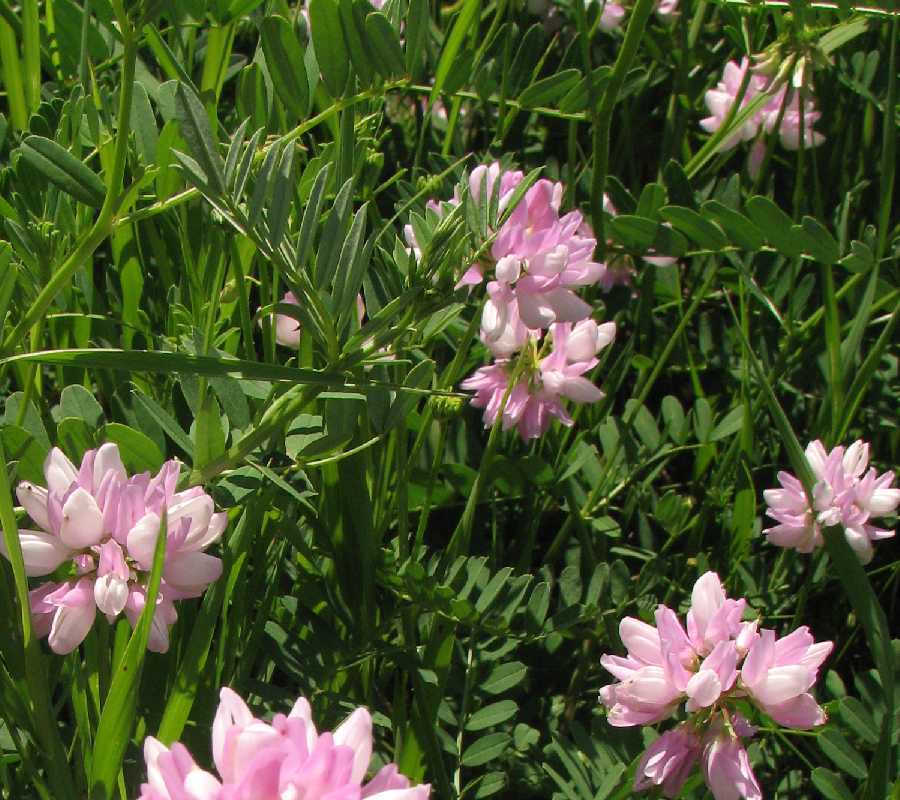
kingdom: Plantae
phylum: Tracheophyta
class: Magnoliopsida
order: Fabales
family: Fabaceae
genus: Coronilla
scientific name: Coronilla varia
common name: Crownvetch
